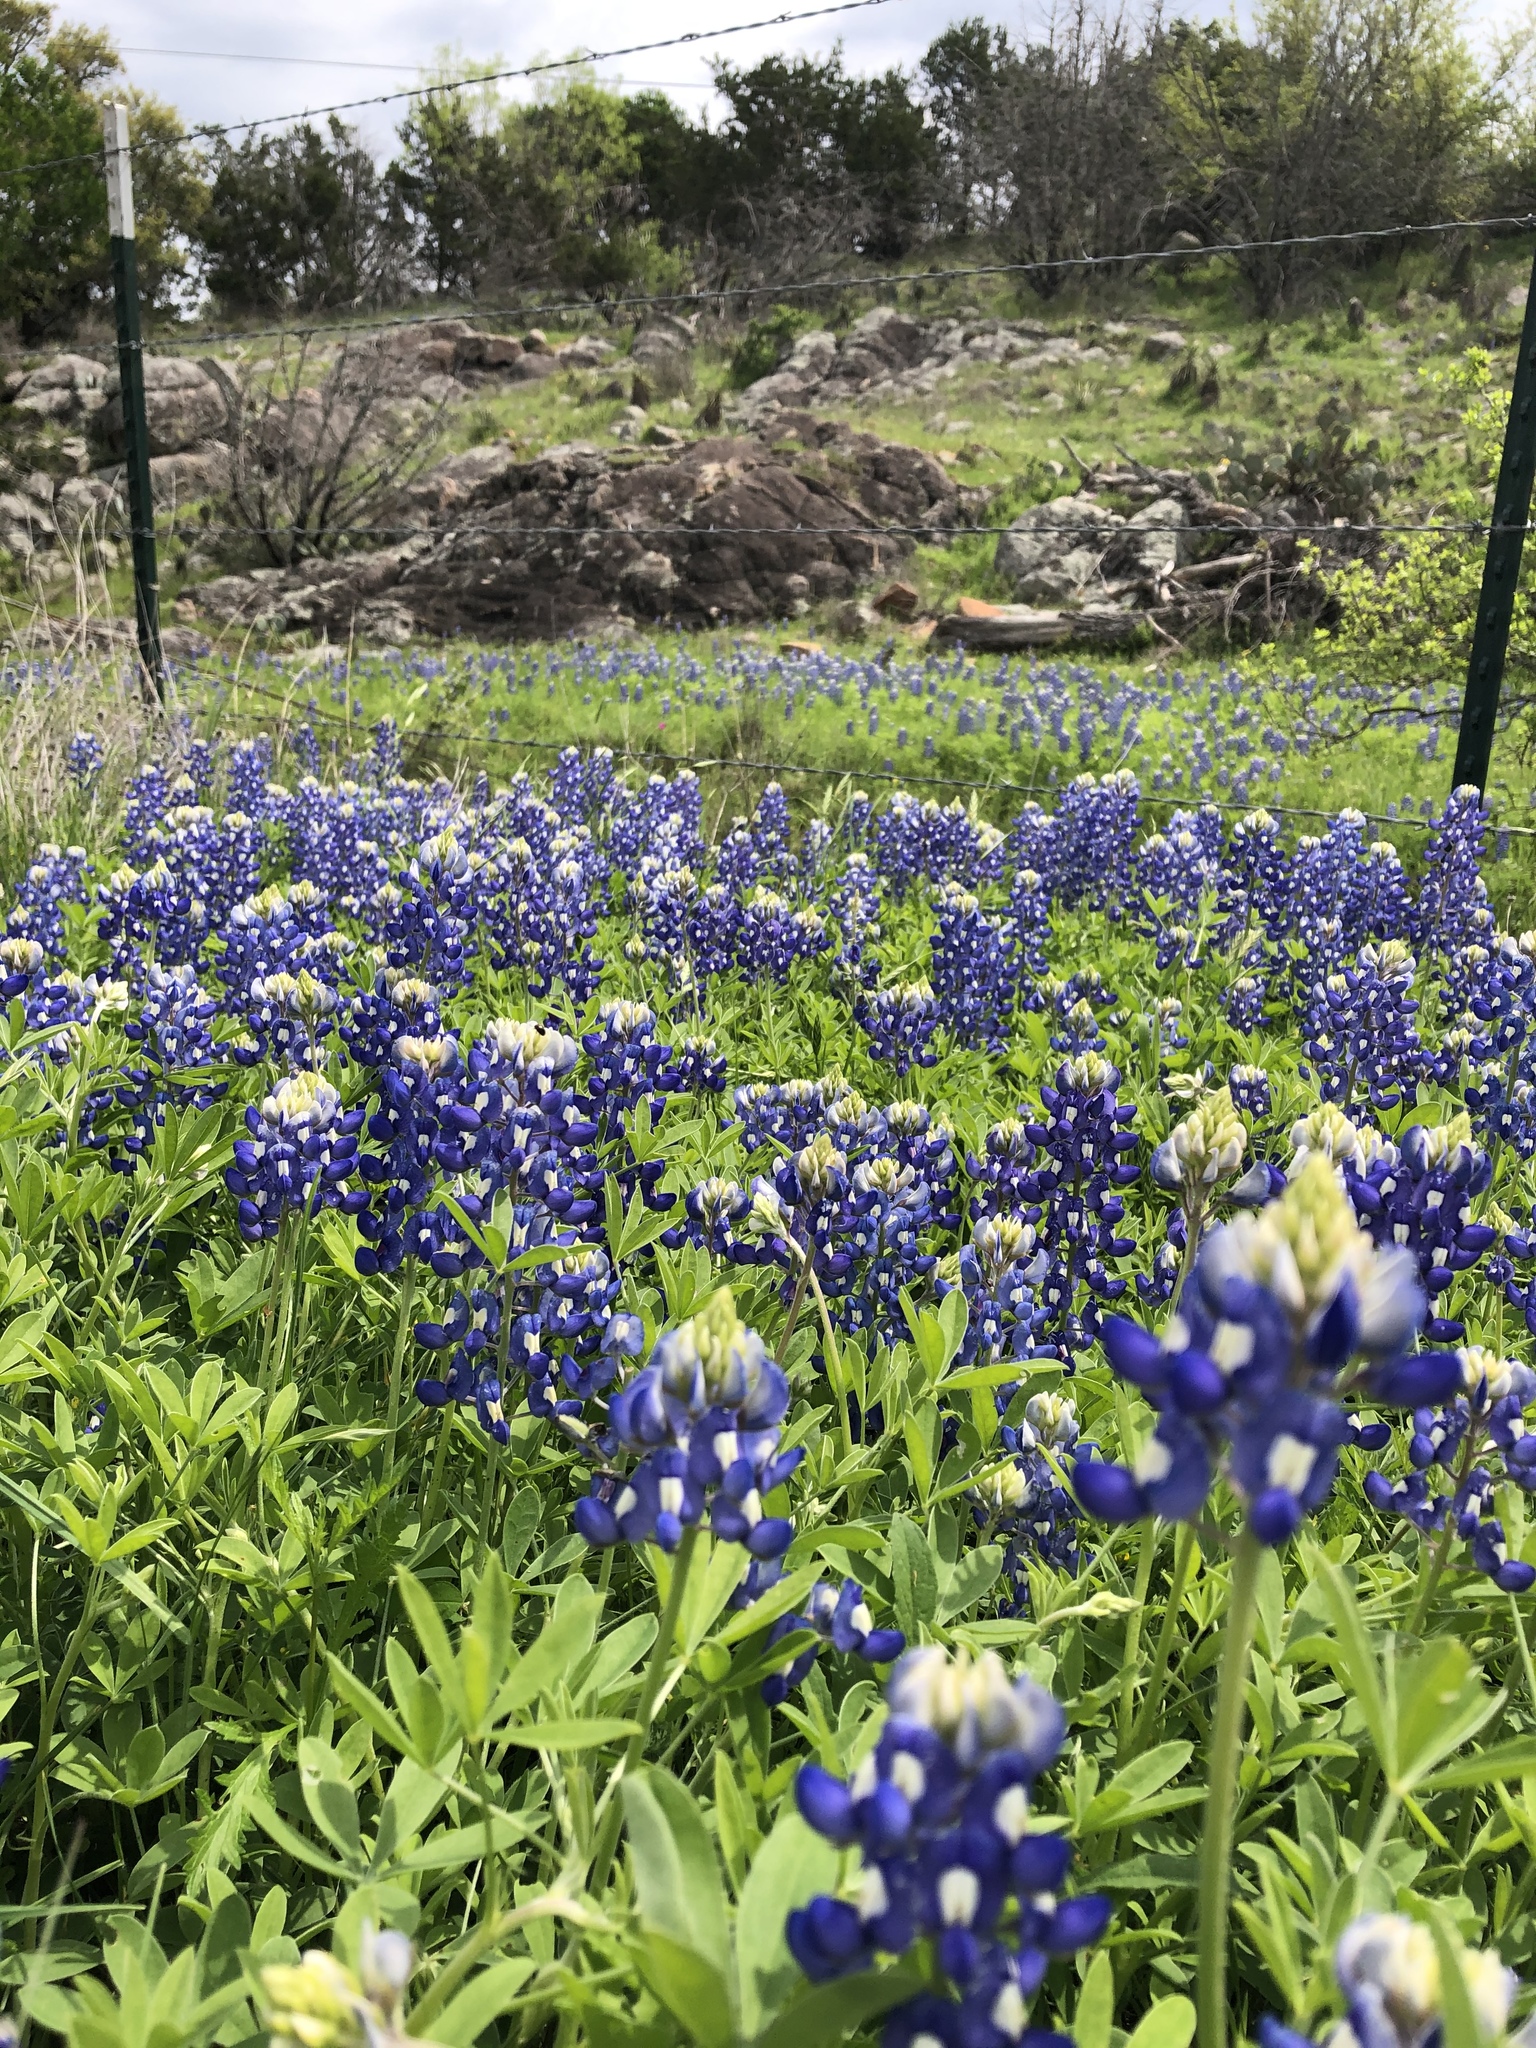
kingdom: Plantae
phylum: Tracheophyta
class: Magnoliopsida
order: Fabales
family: Fabaceae
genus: Lupinus
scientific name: Lupinus texensis
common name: Texas bluebonnet
